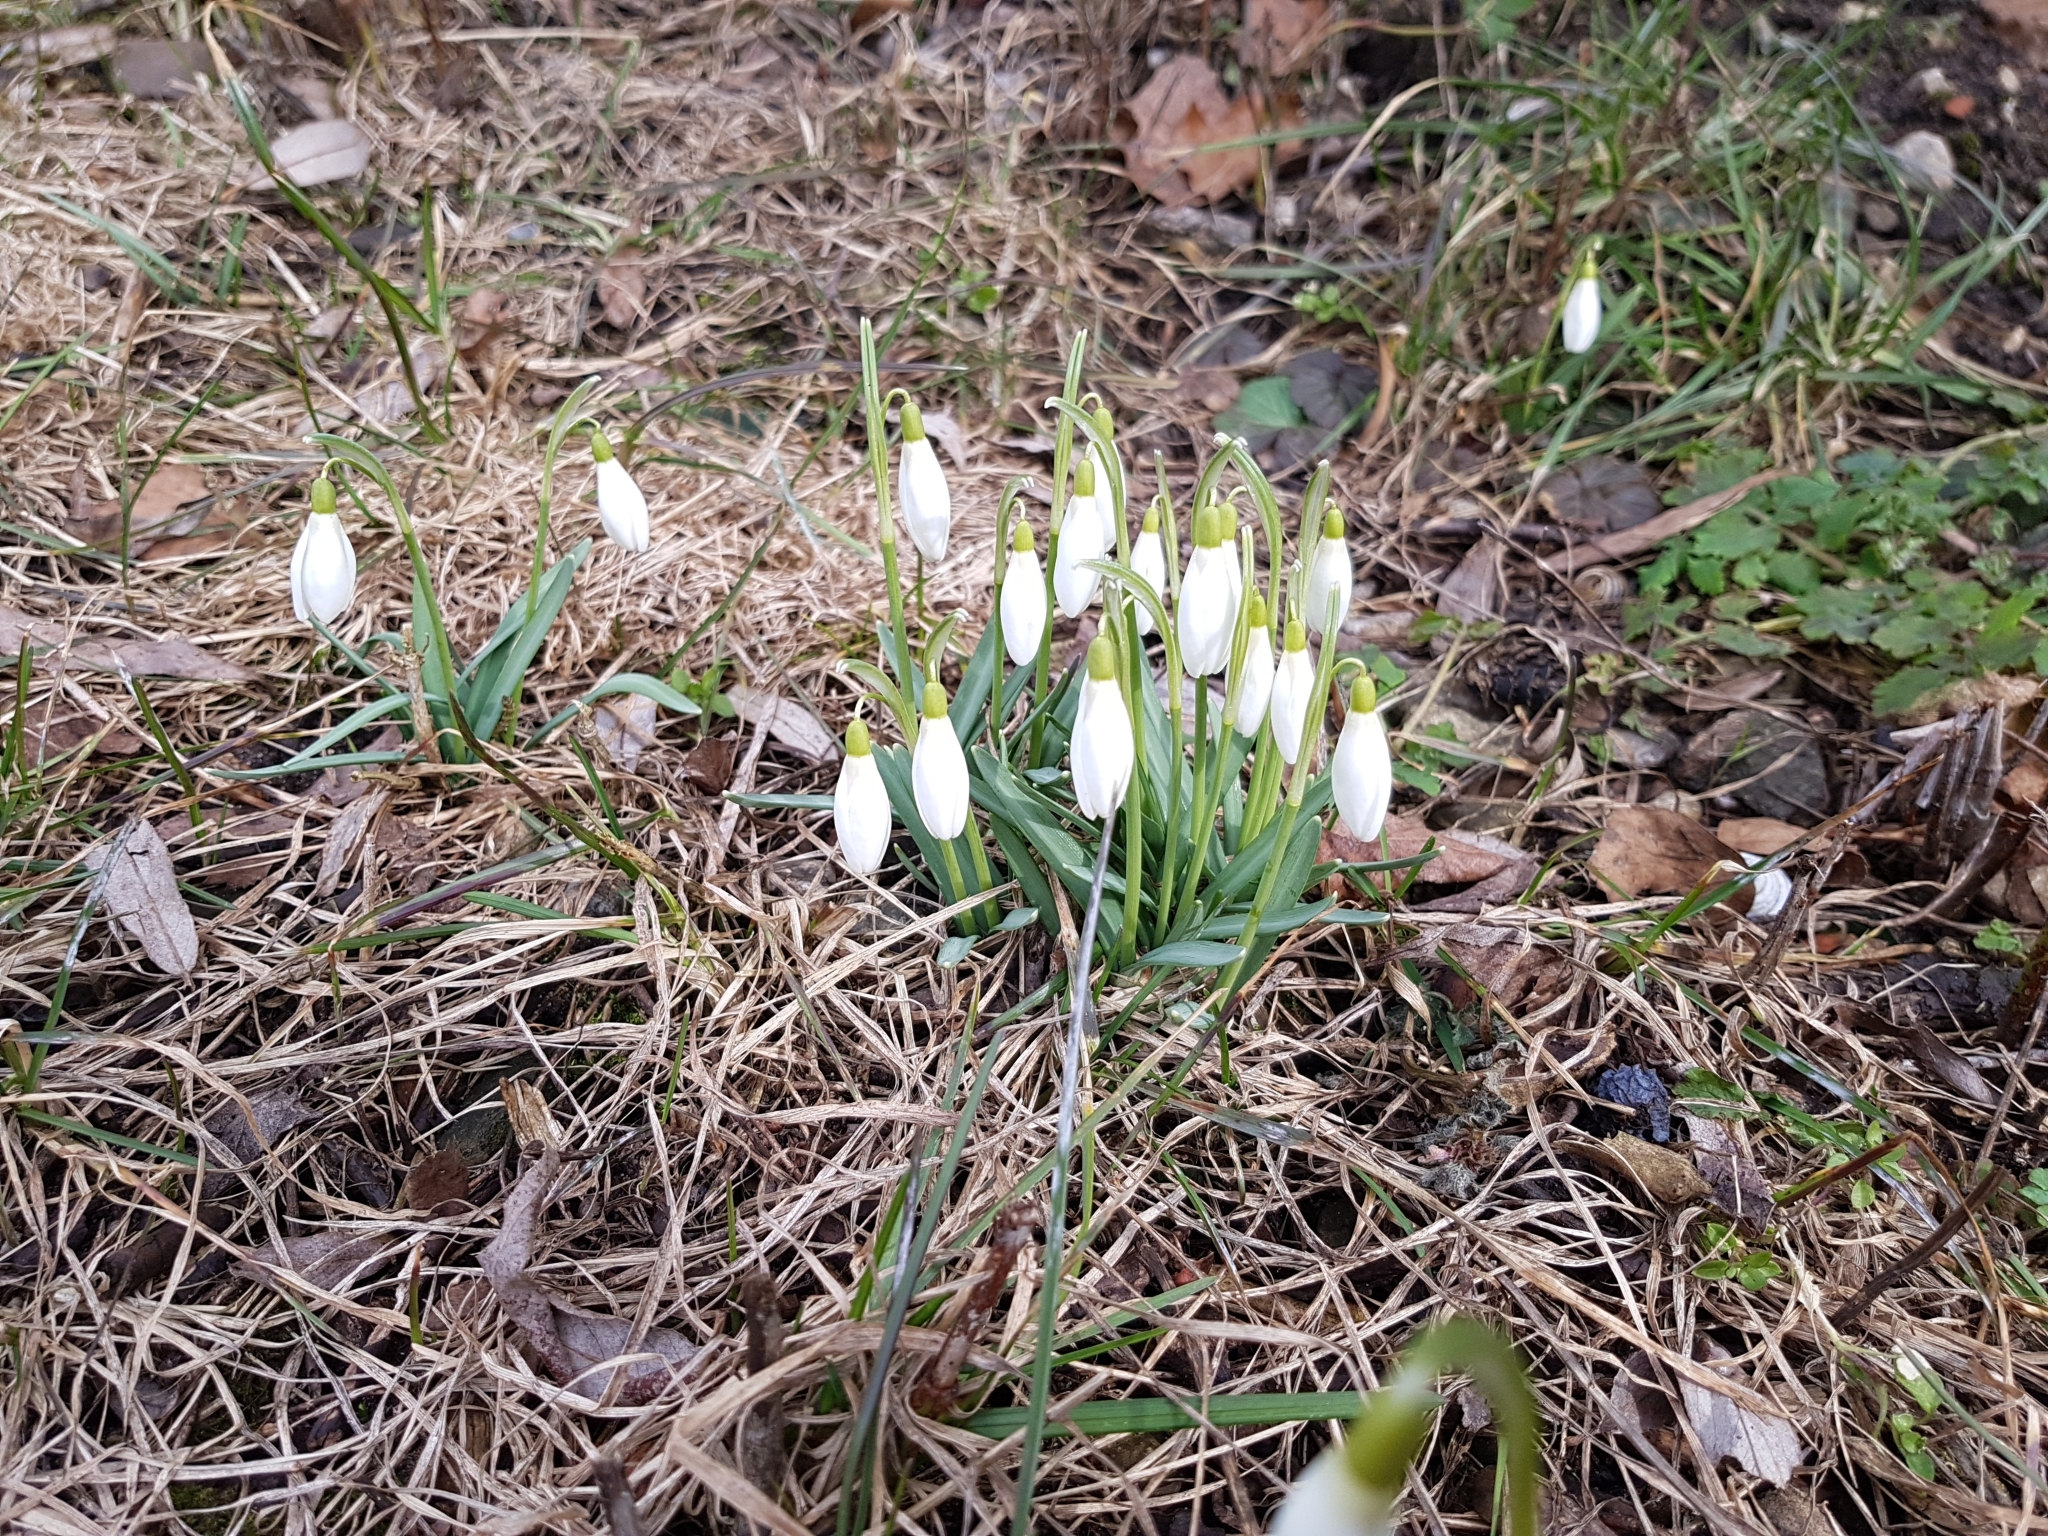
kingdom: Plantae
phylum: Tracheophyta
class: Liliopsida
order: Asparagales
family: Amaryllidaceae
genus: Galanthus
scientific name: Galanthus nivalis
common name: Snowdrop
